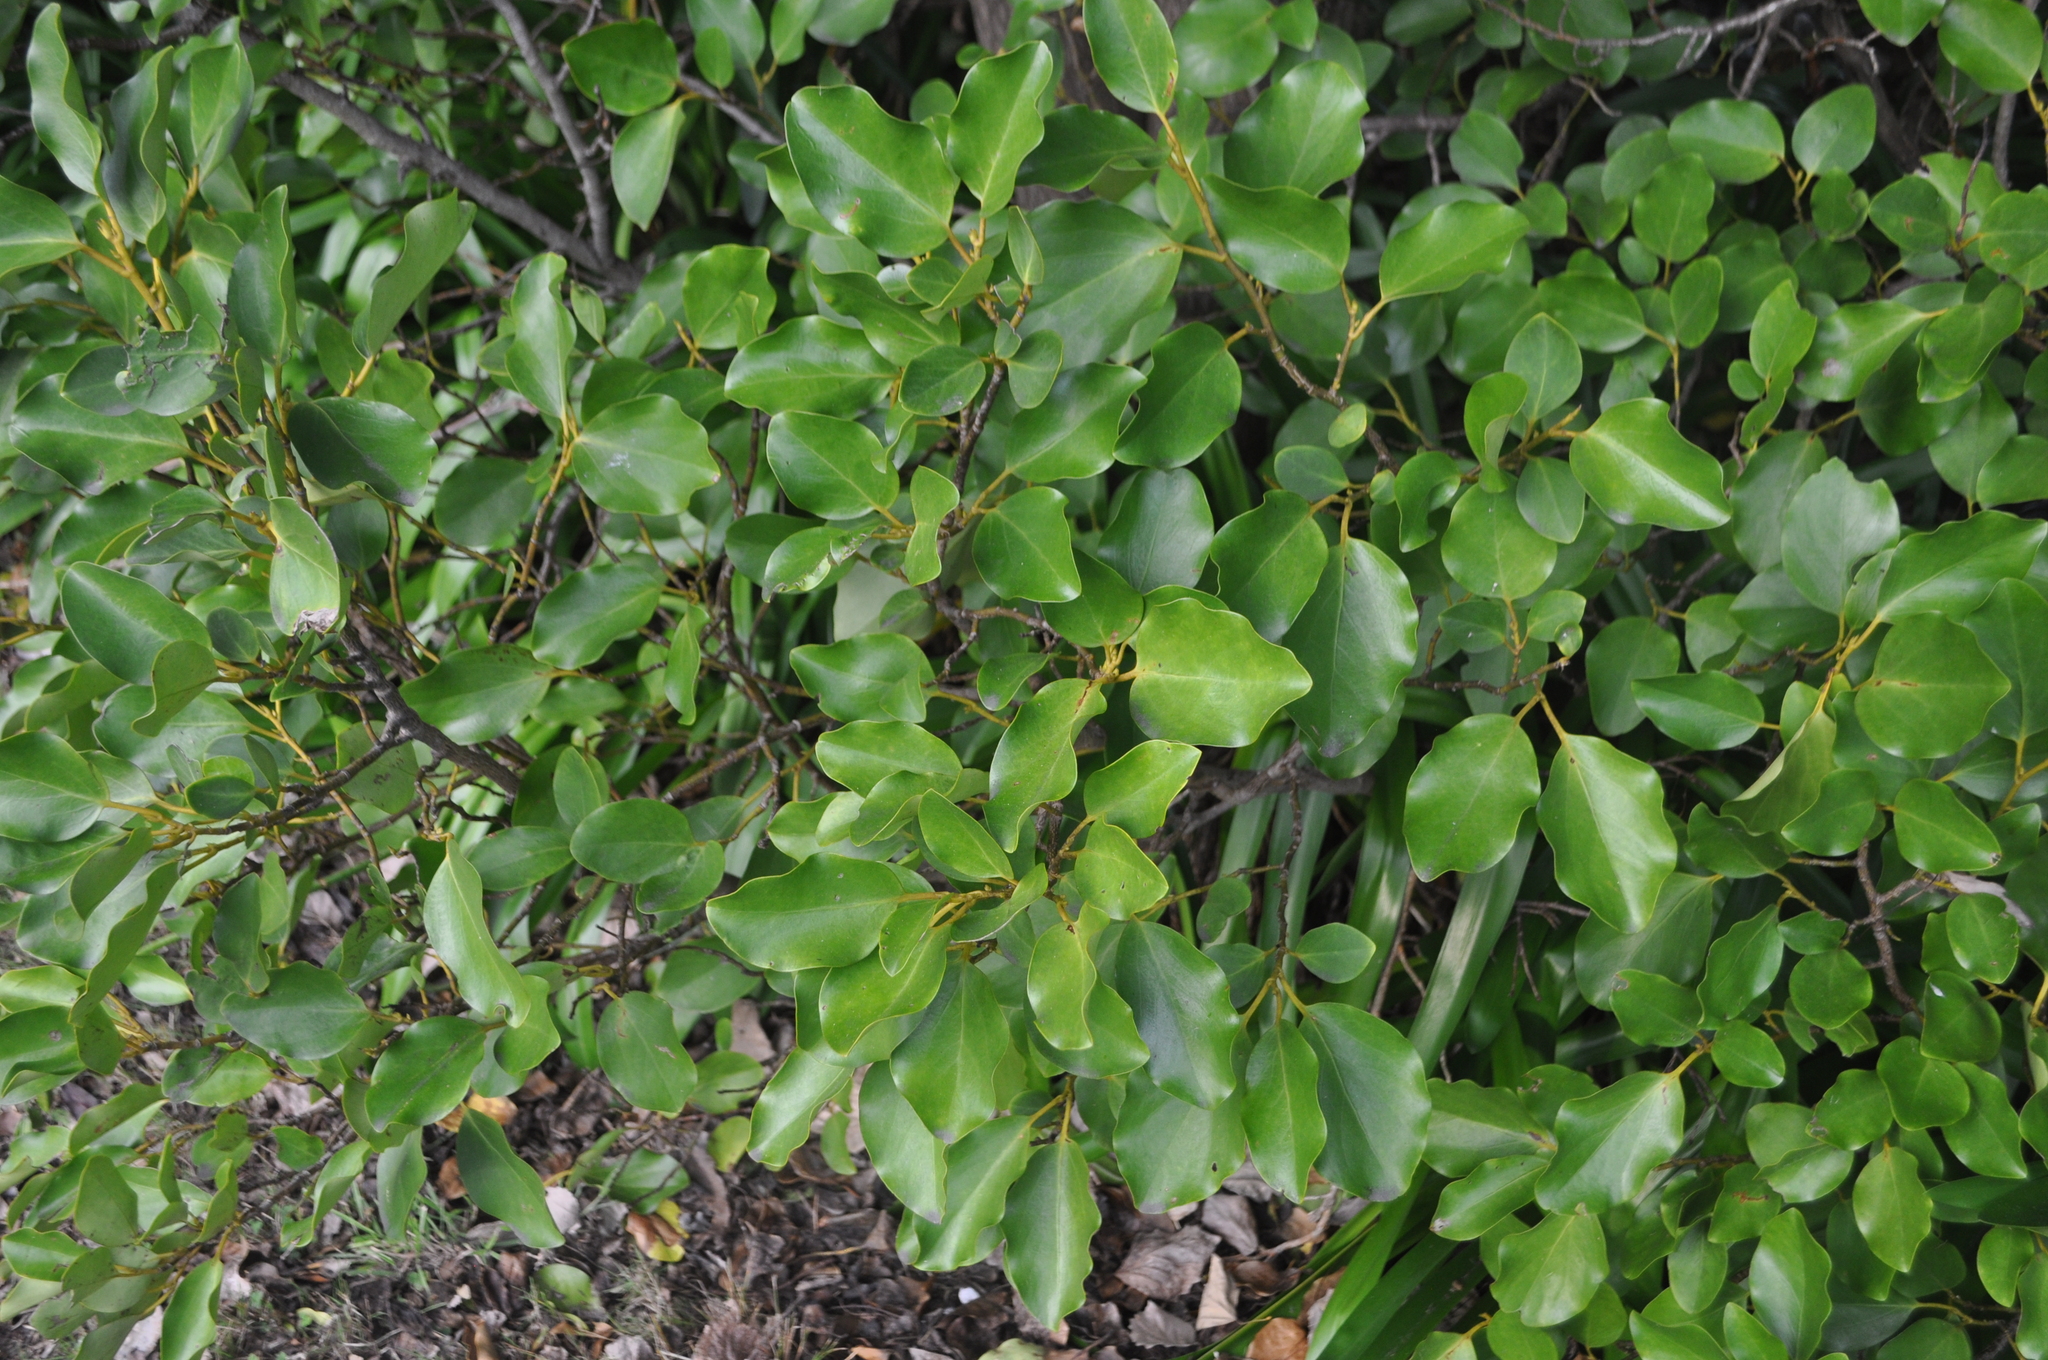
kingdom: Plantae
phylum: Tracheophyta
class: Magnoliopsida
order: Apiales
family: Griseliniaceae
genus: Griselinia
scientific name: Griselinia littoralis
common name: New zealand broadleaf
